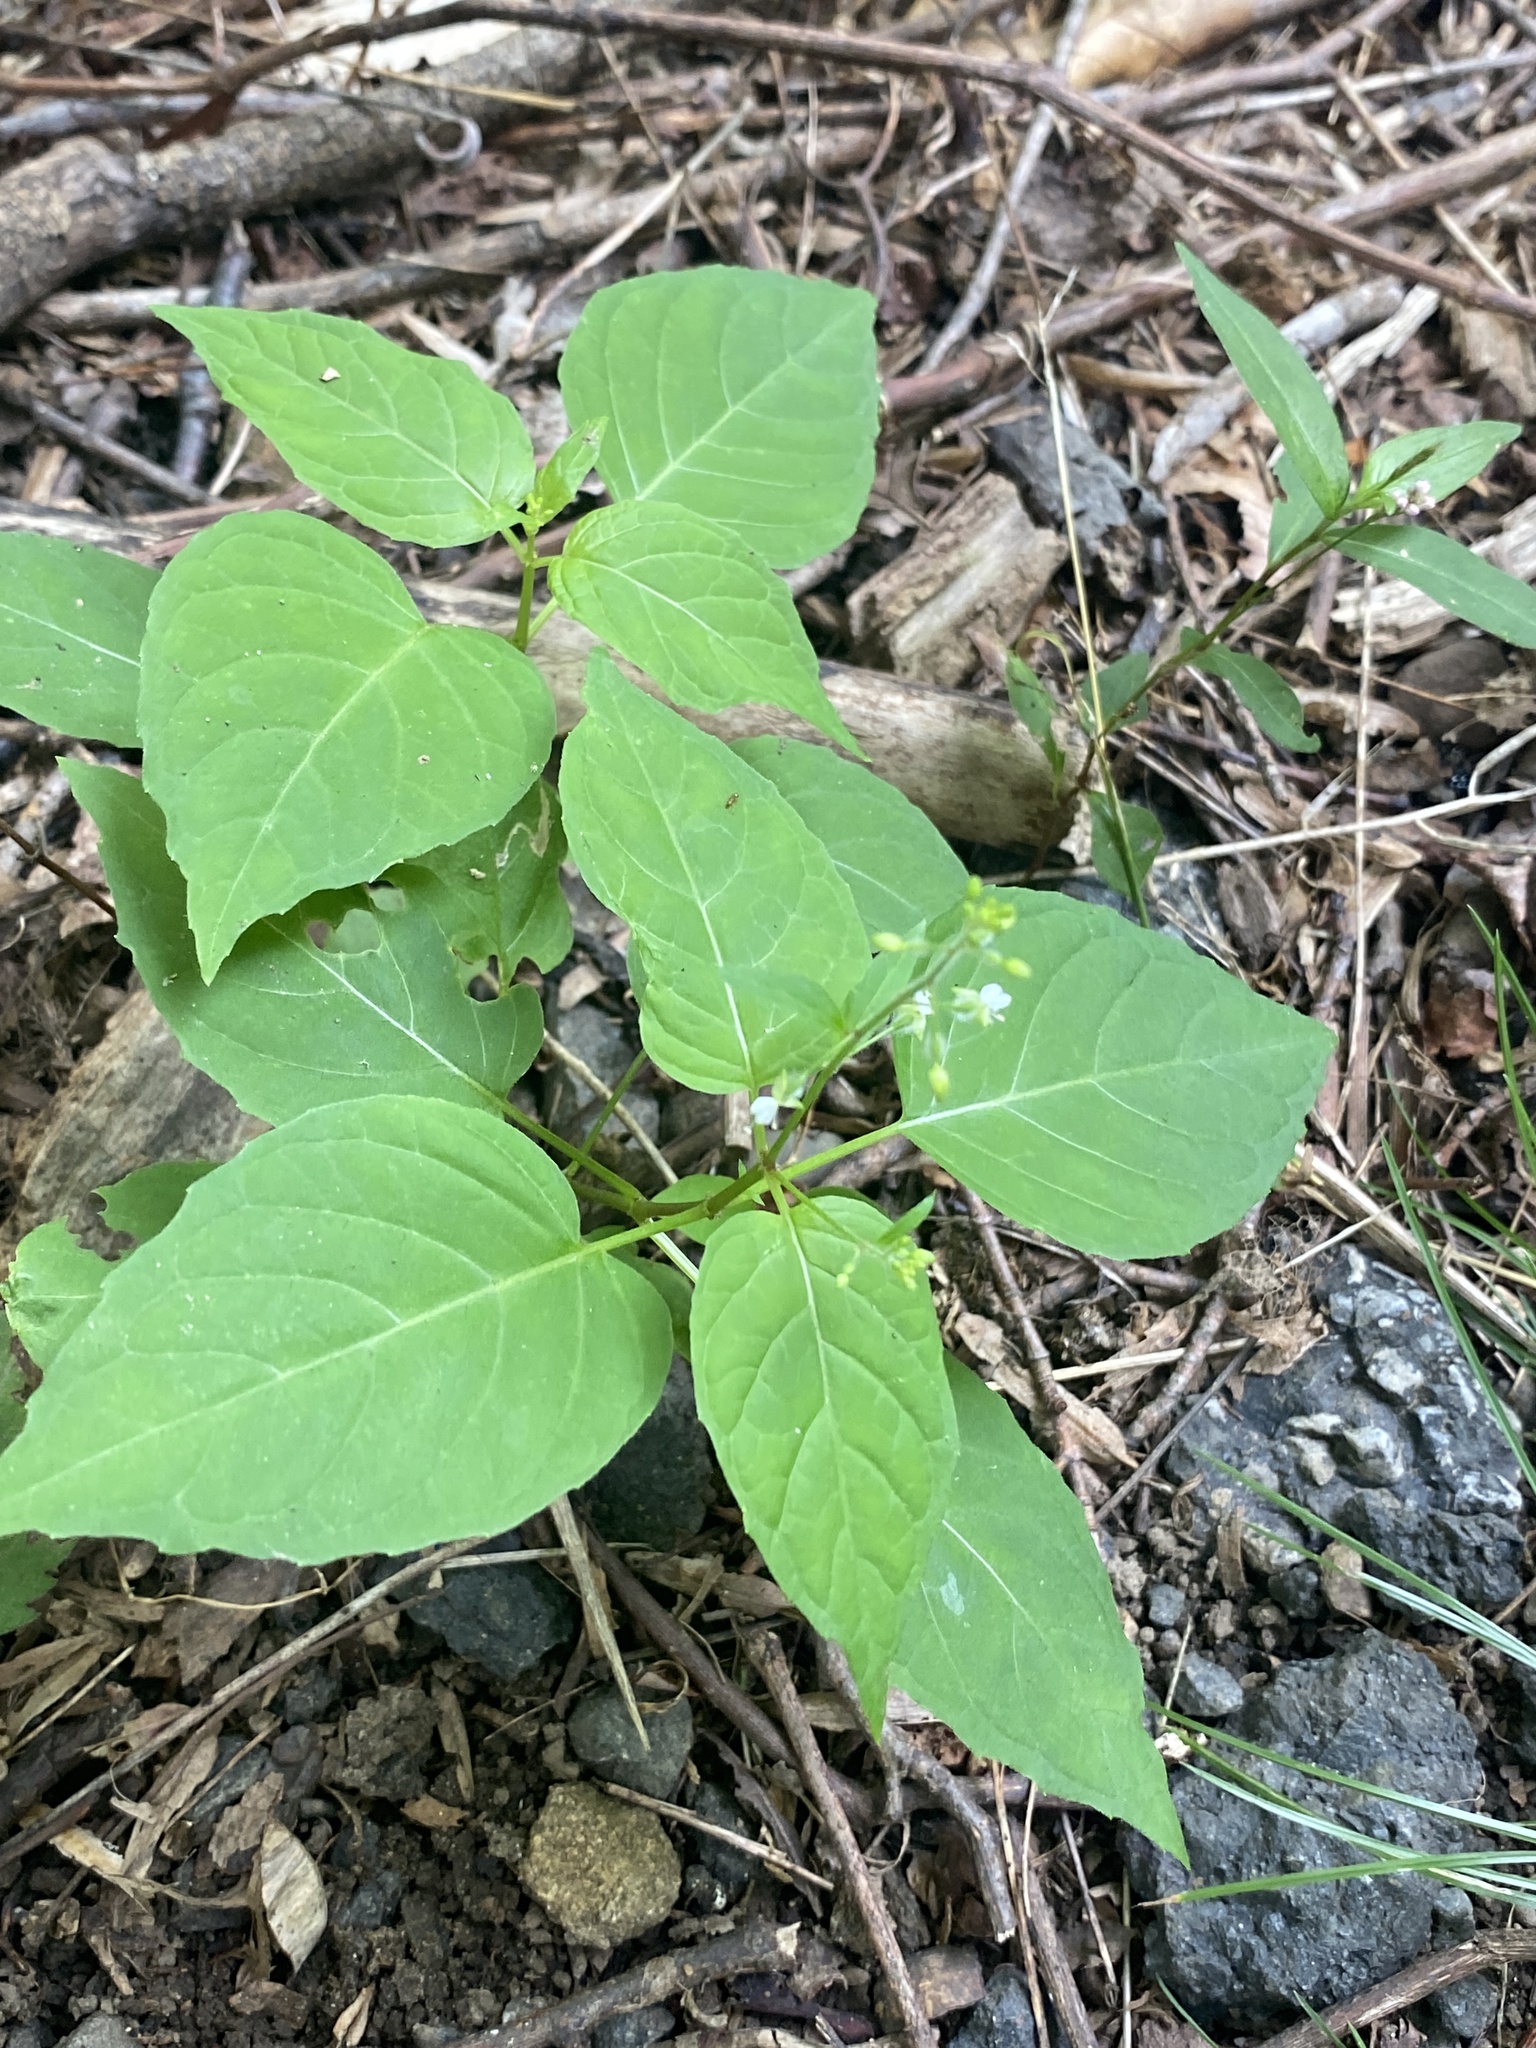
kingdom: Plantae
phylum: Tracheophyta
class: Magnoliopsida
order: Myrtales
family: Onagraceae
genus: Circaea
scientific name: Circaea canadensis
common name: Broad-leaved enchanter's nightshade
